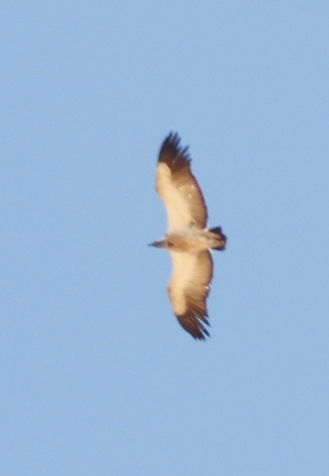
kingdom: Animalia
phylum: Chordata
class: Aves
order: Accipitriformes
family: Accipitridae
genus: Gyps
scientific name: Gyps coprotheres
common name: Cape vulture
